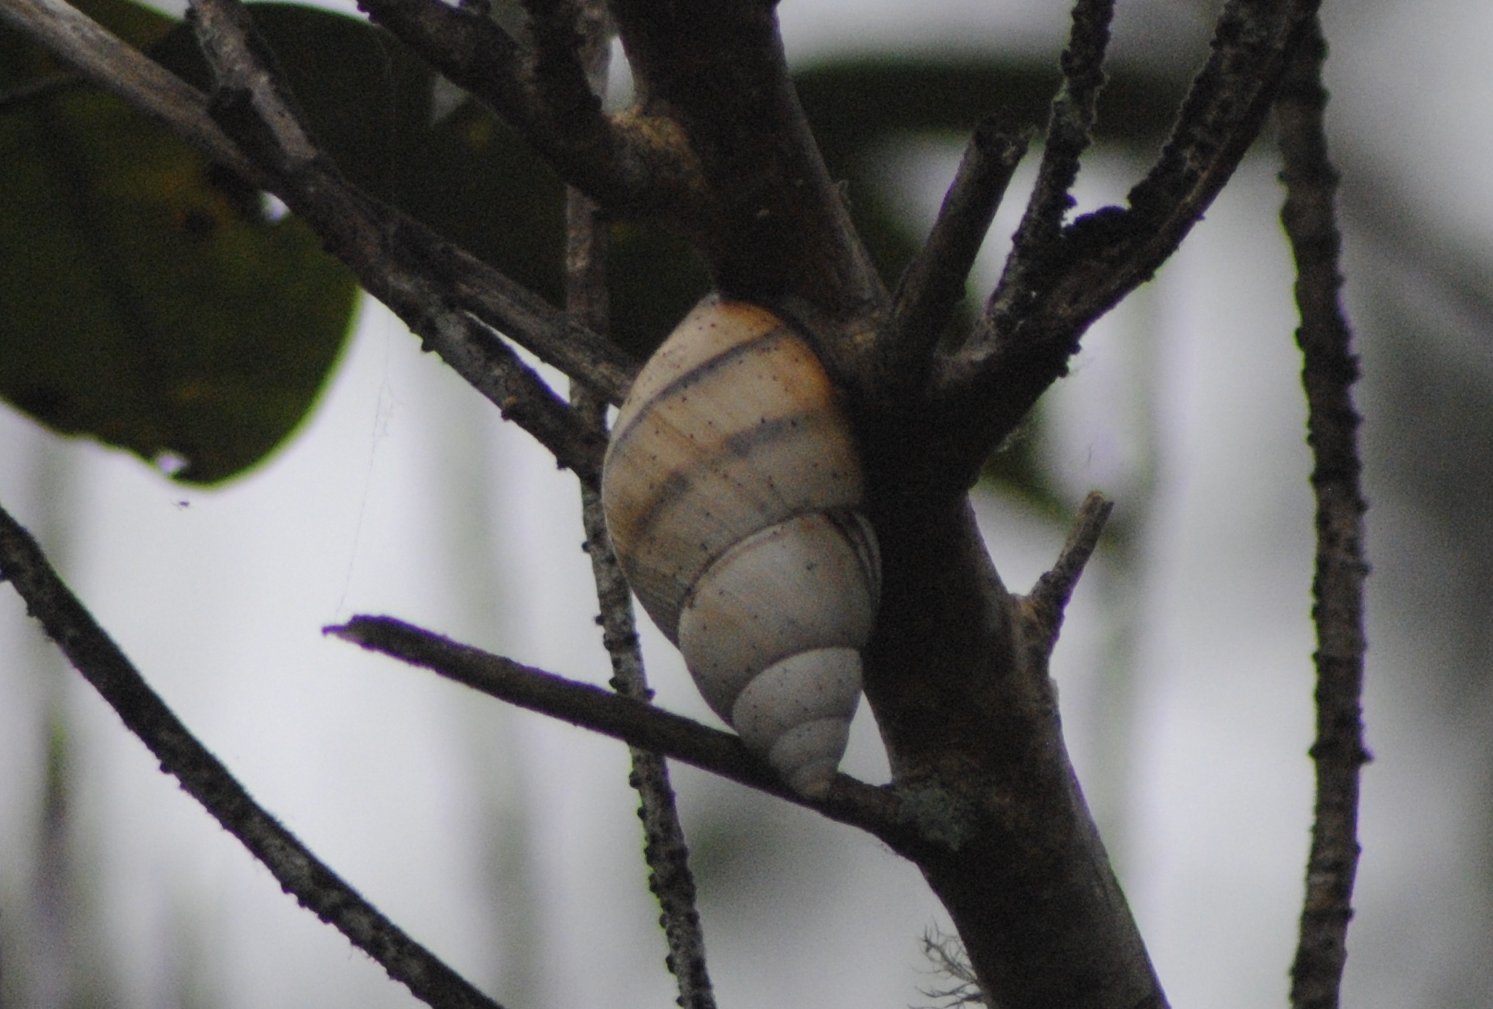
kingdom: Animalia
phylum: Mollusca
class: Gastropoda
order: Stylommatophora
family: Orthalicidae
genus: Orthalicus
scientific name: Orthalicus floridensis
